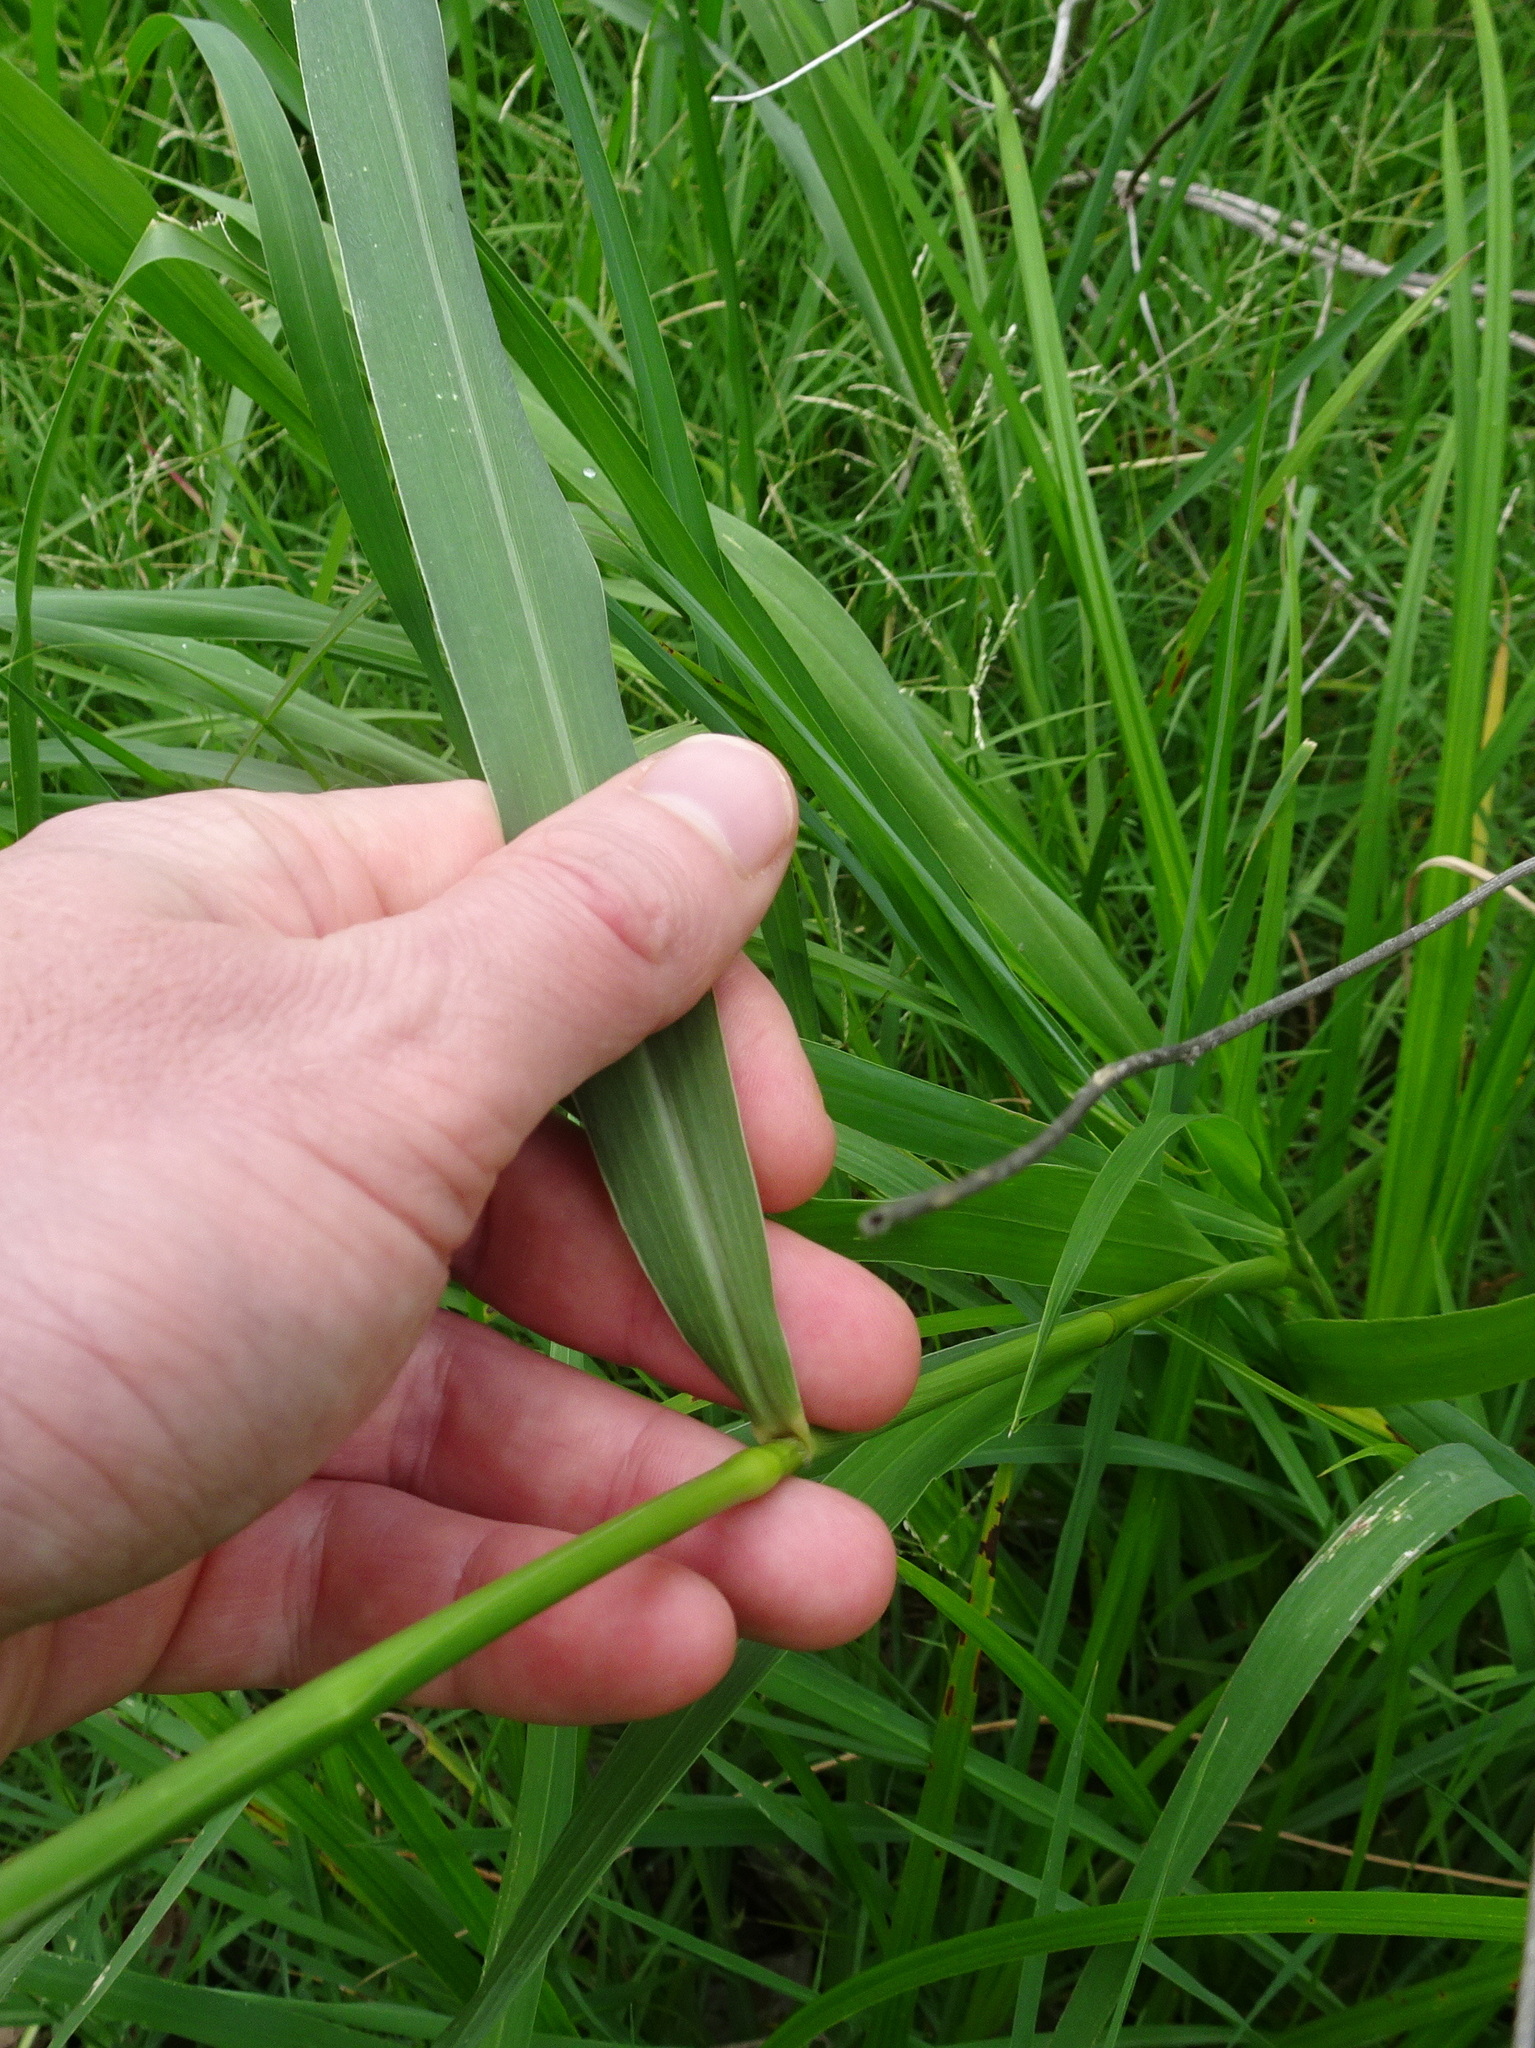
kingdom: Plantae
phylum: Tracheophyta
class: Liliopsida
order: Poales
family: Poaceae
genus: Setaria
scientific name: Setaria faberi
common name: Nodding bristle-grass
